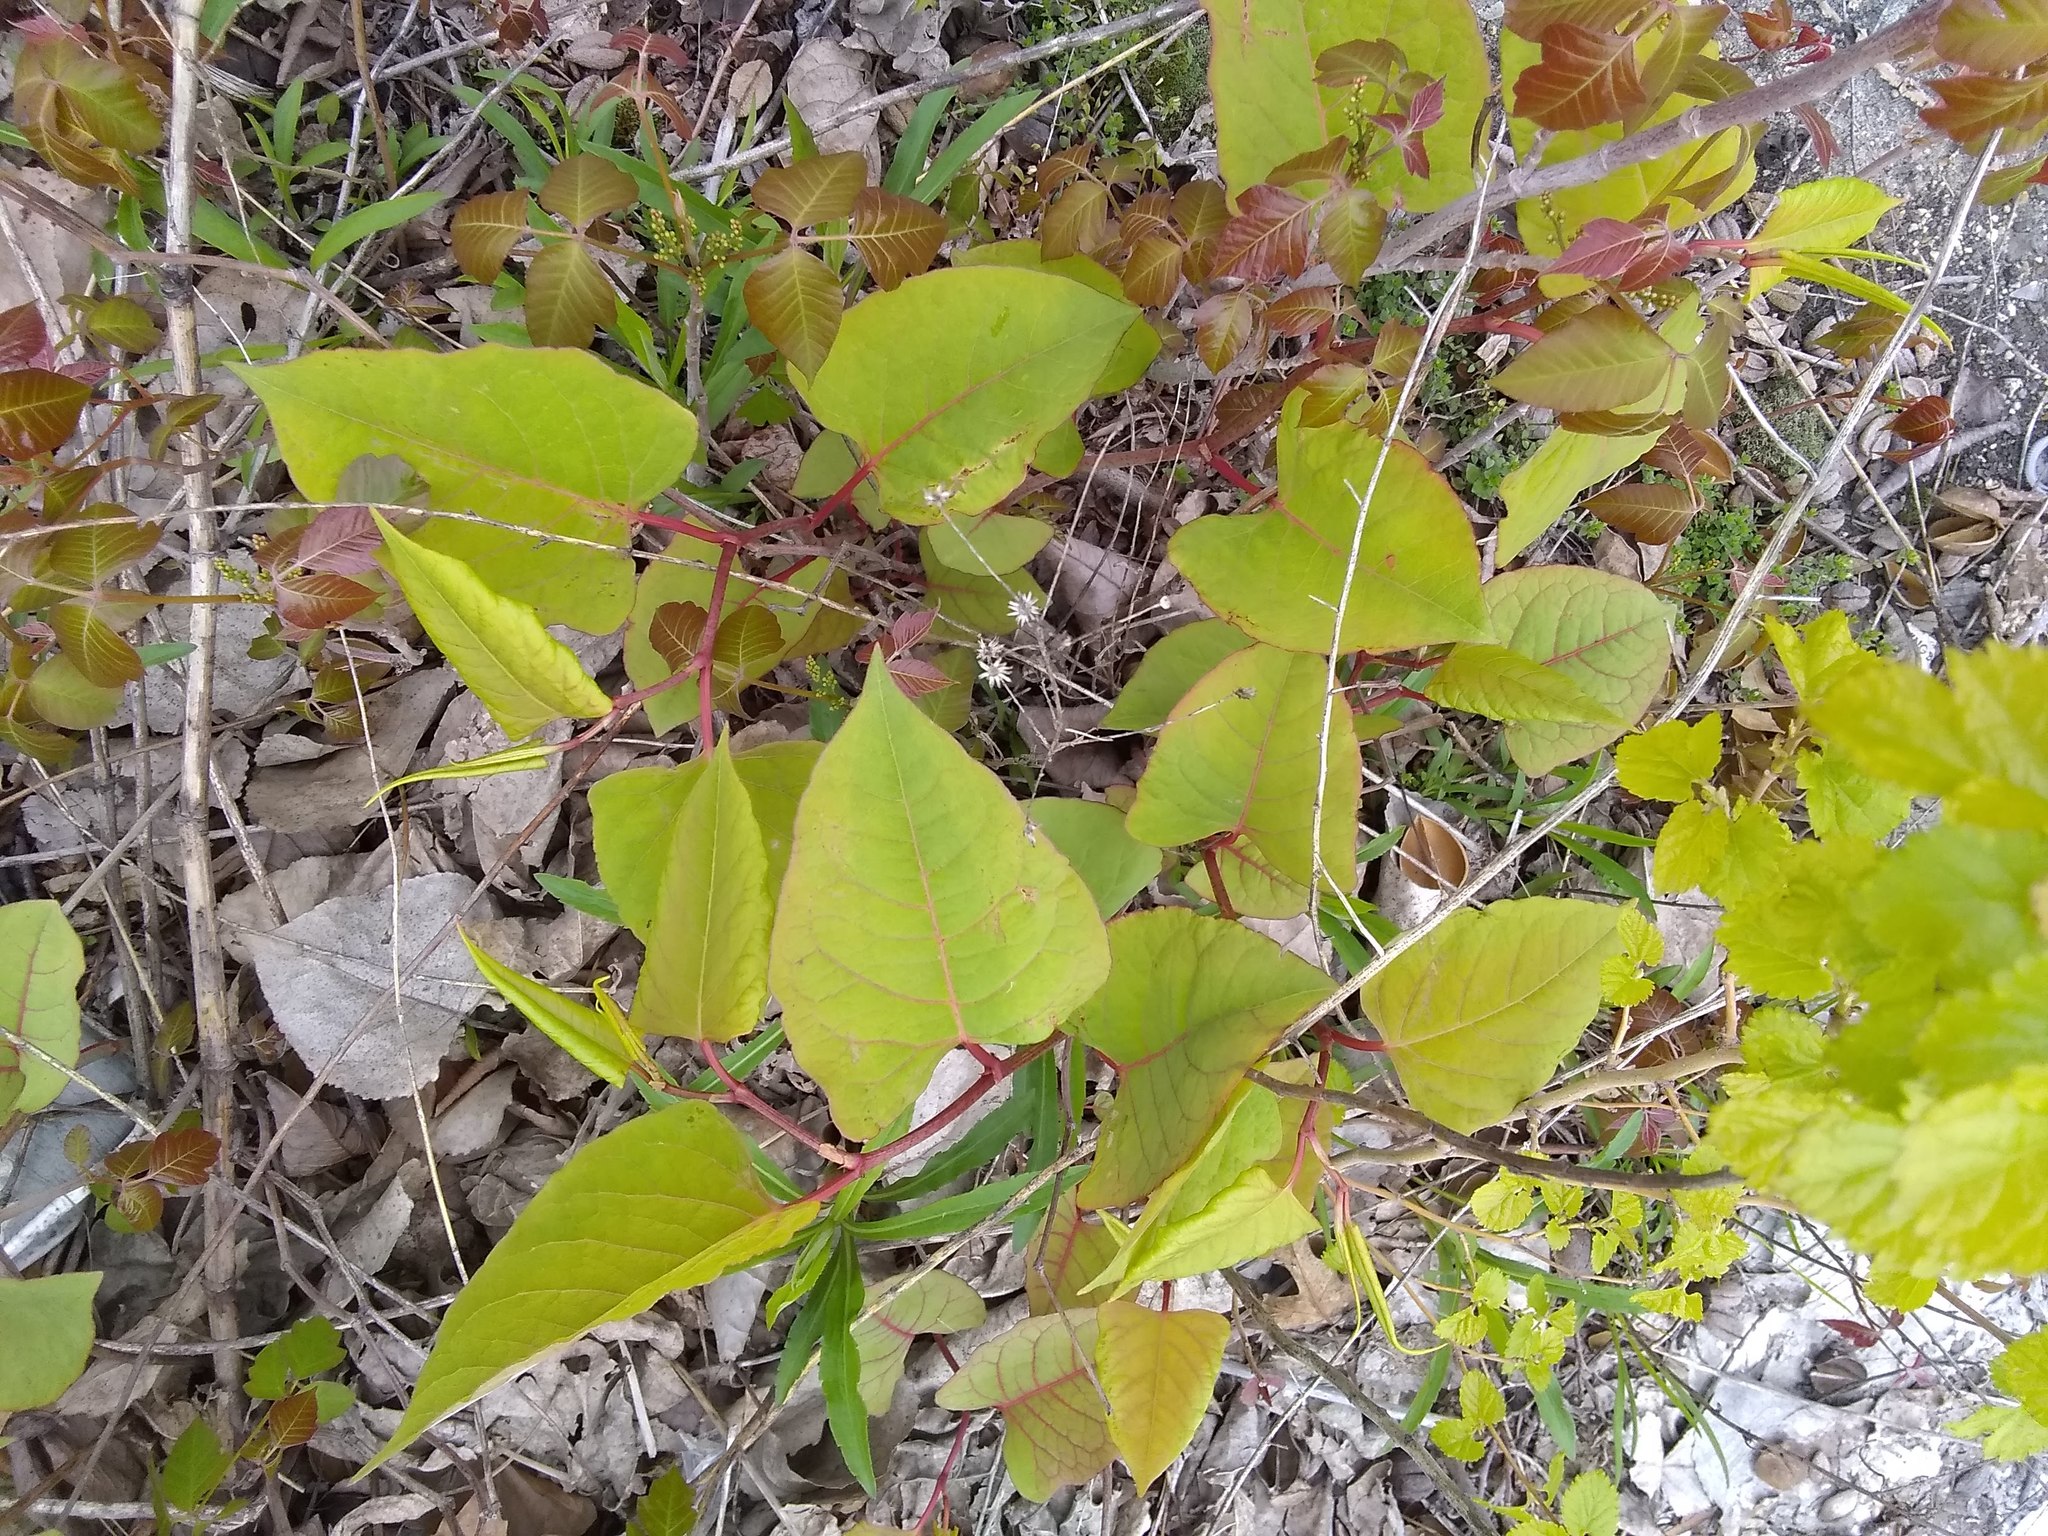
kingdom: Plantae
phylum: Tracheophyta
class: Magnoliopsida
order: Caryophyllales
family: Polygonaceae
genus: Reynoutria
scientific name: Reynoutria japonica
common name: Japanese knotweed
